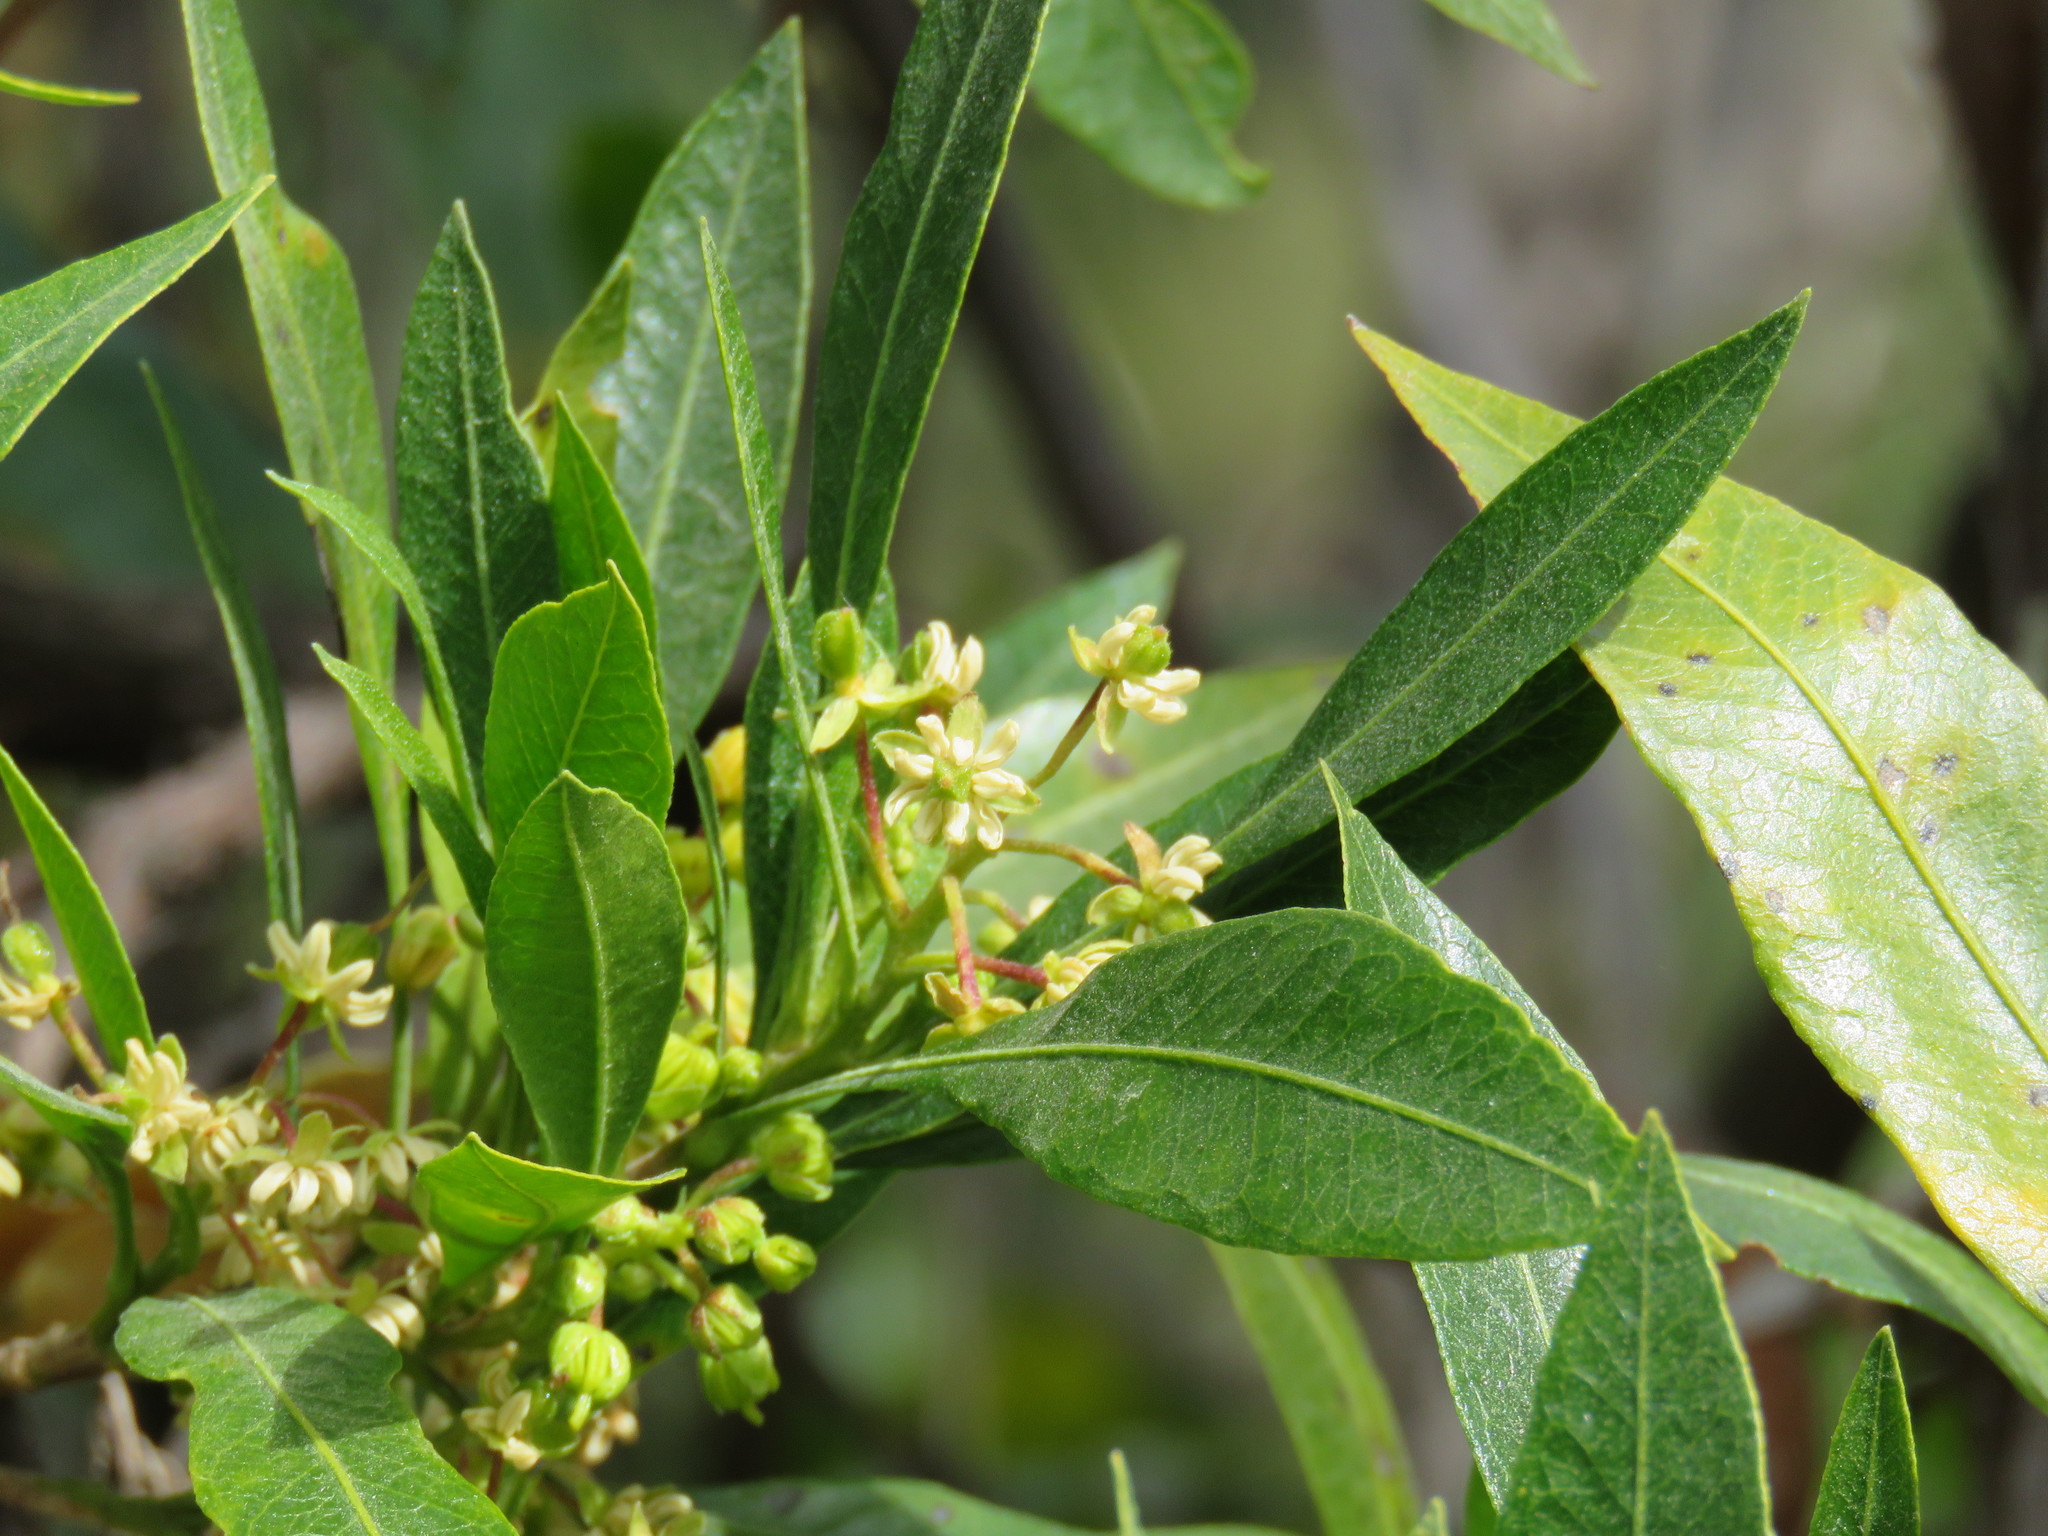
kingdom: Plantae
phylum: Tracheophyta
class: Magnoliopsida
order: Sapindales
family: Sapindaceae
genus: Dodonaea
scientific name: Dodonaea viscosa
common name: Hopbush
